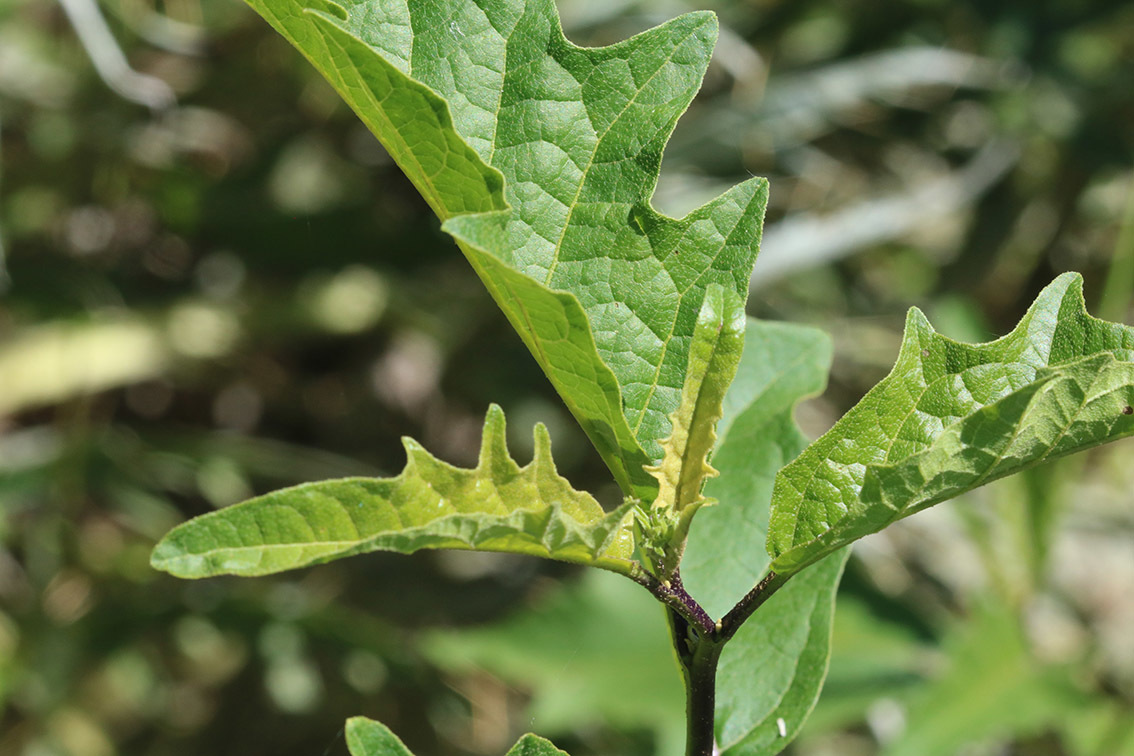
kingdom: Plantae
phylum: Tracheophyta
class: Magnoliopsida
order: Solanales
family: Solanaceae
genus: Solanum
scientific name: Solanum bonariense
